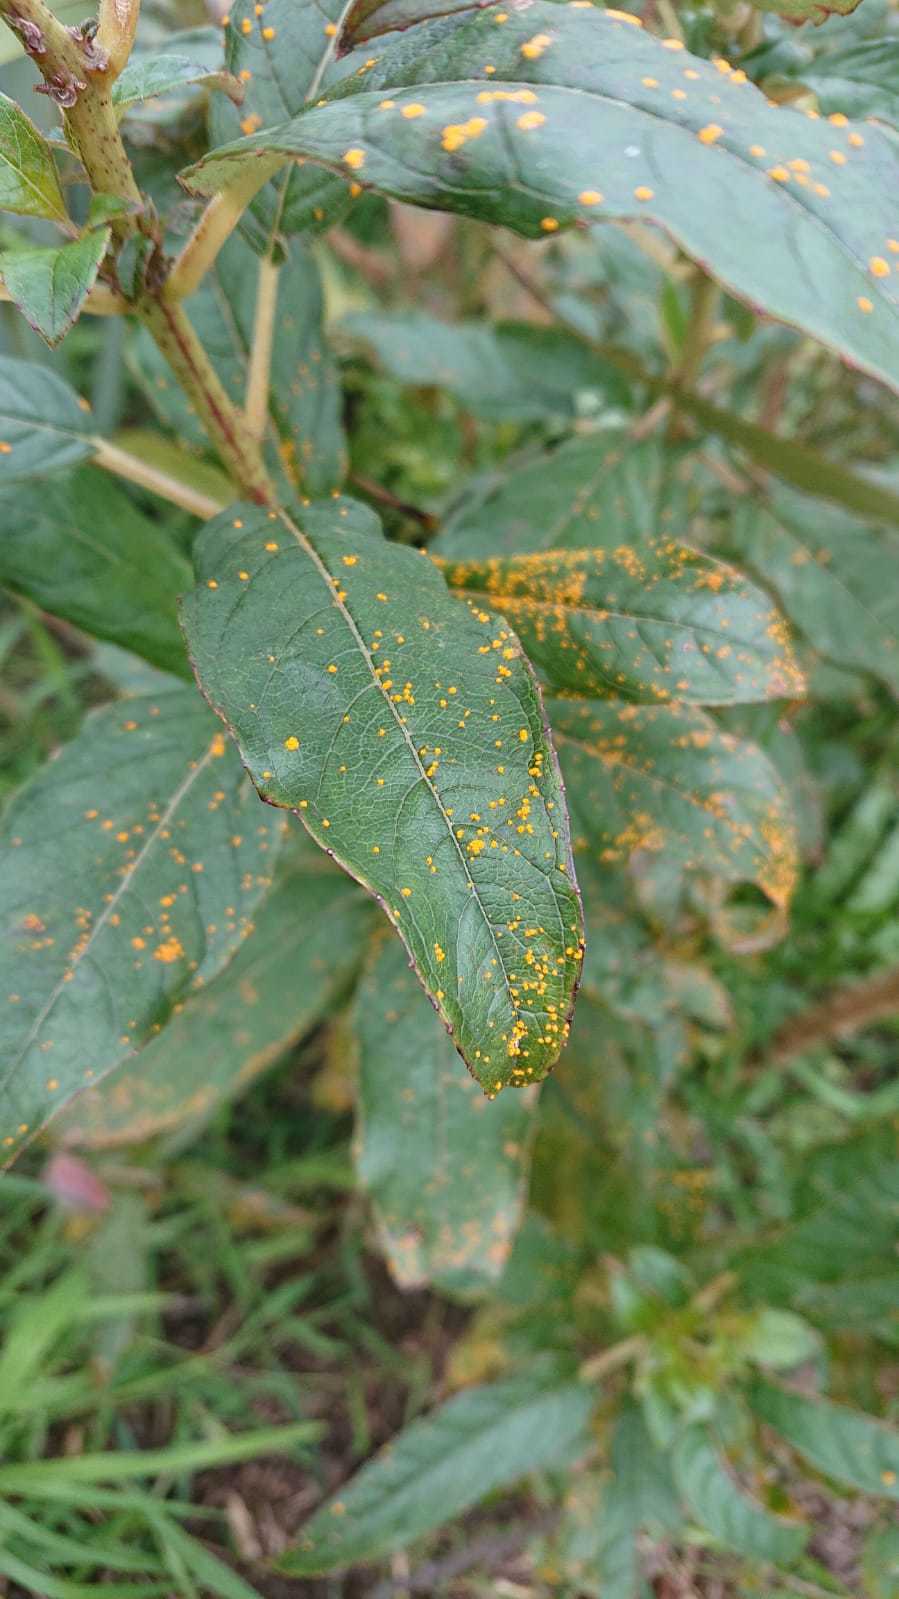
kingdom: Fungi
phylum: Basidiomycota
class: Pucciniomycetes
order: Pucciniales
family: Mikronegeriaceae
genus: Mikronegeria
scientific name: Mikronegeria fuchsiae
